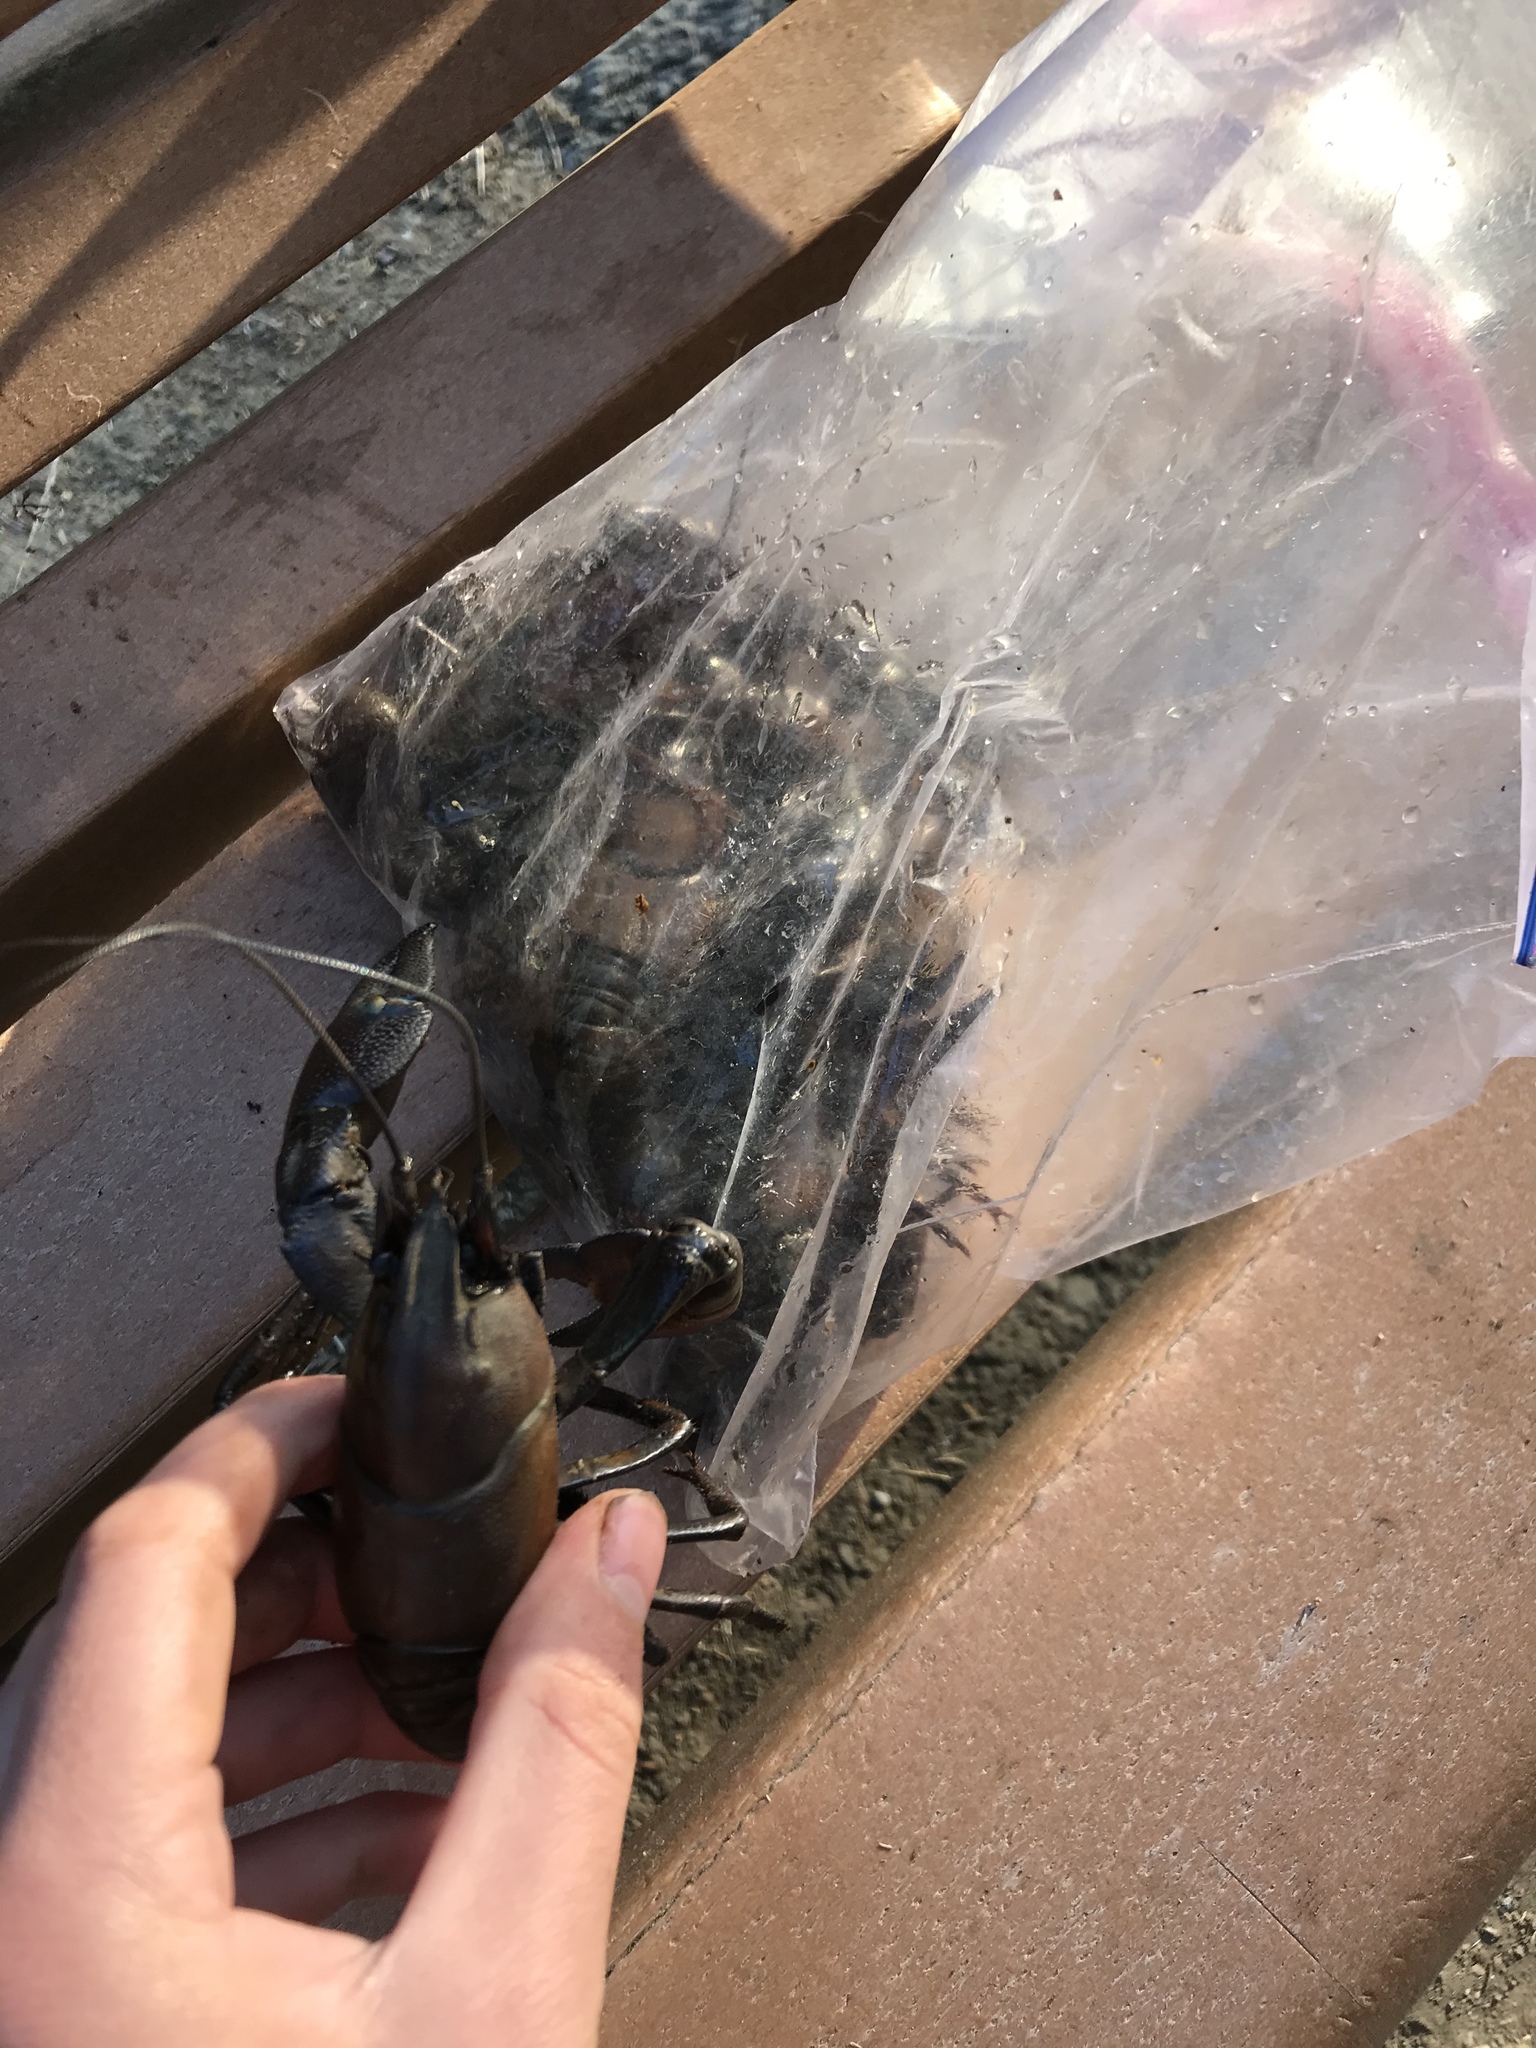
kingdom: Animalia
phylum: Arthropoda
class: Malacostraca
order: Decapoda
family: Astacidae
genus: Pacifastacus
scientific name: Pacifastacus leniusculus
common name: Signal crayfish
